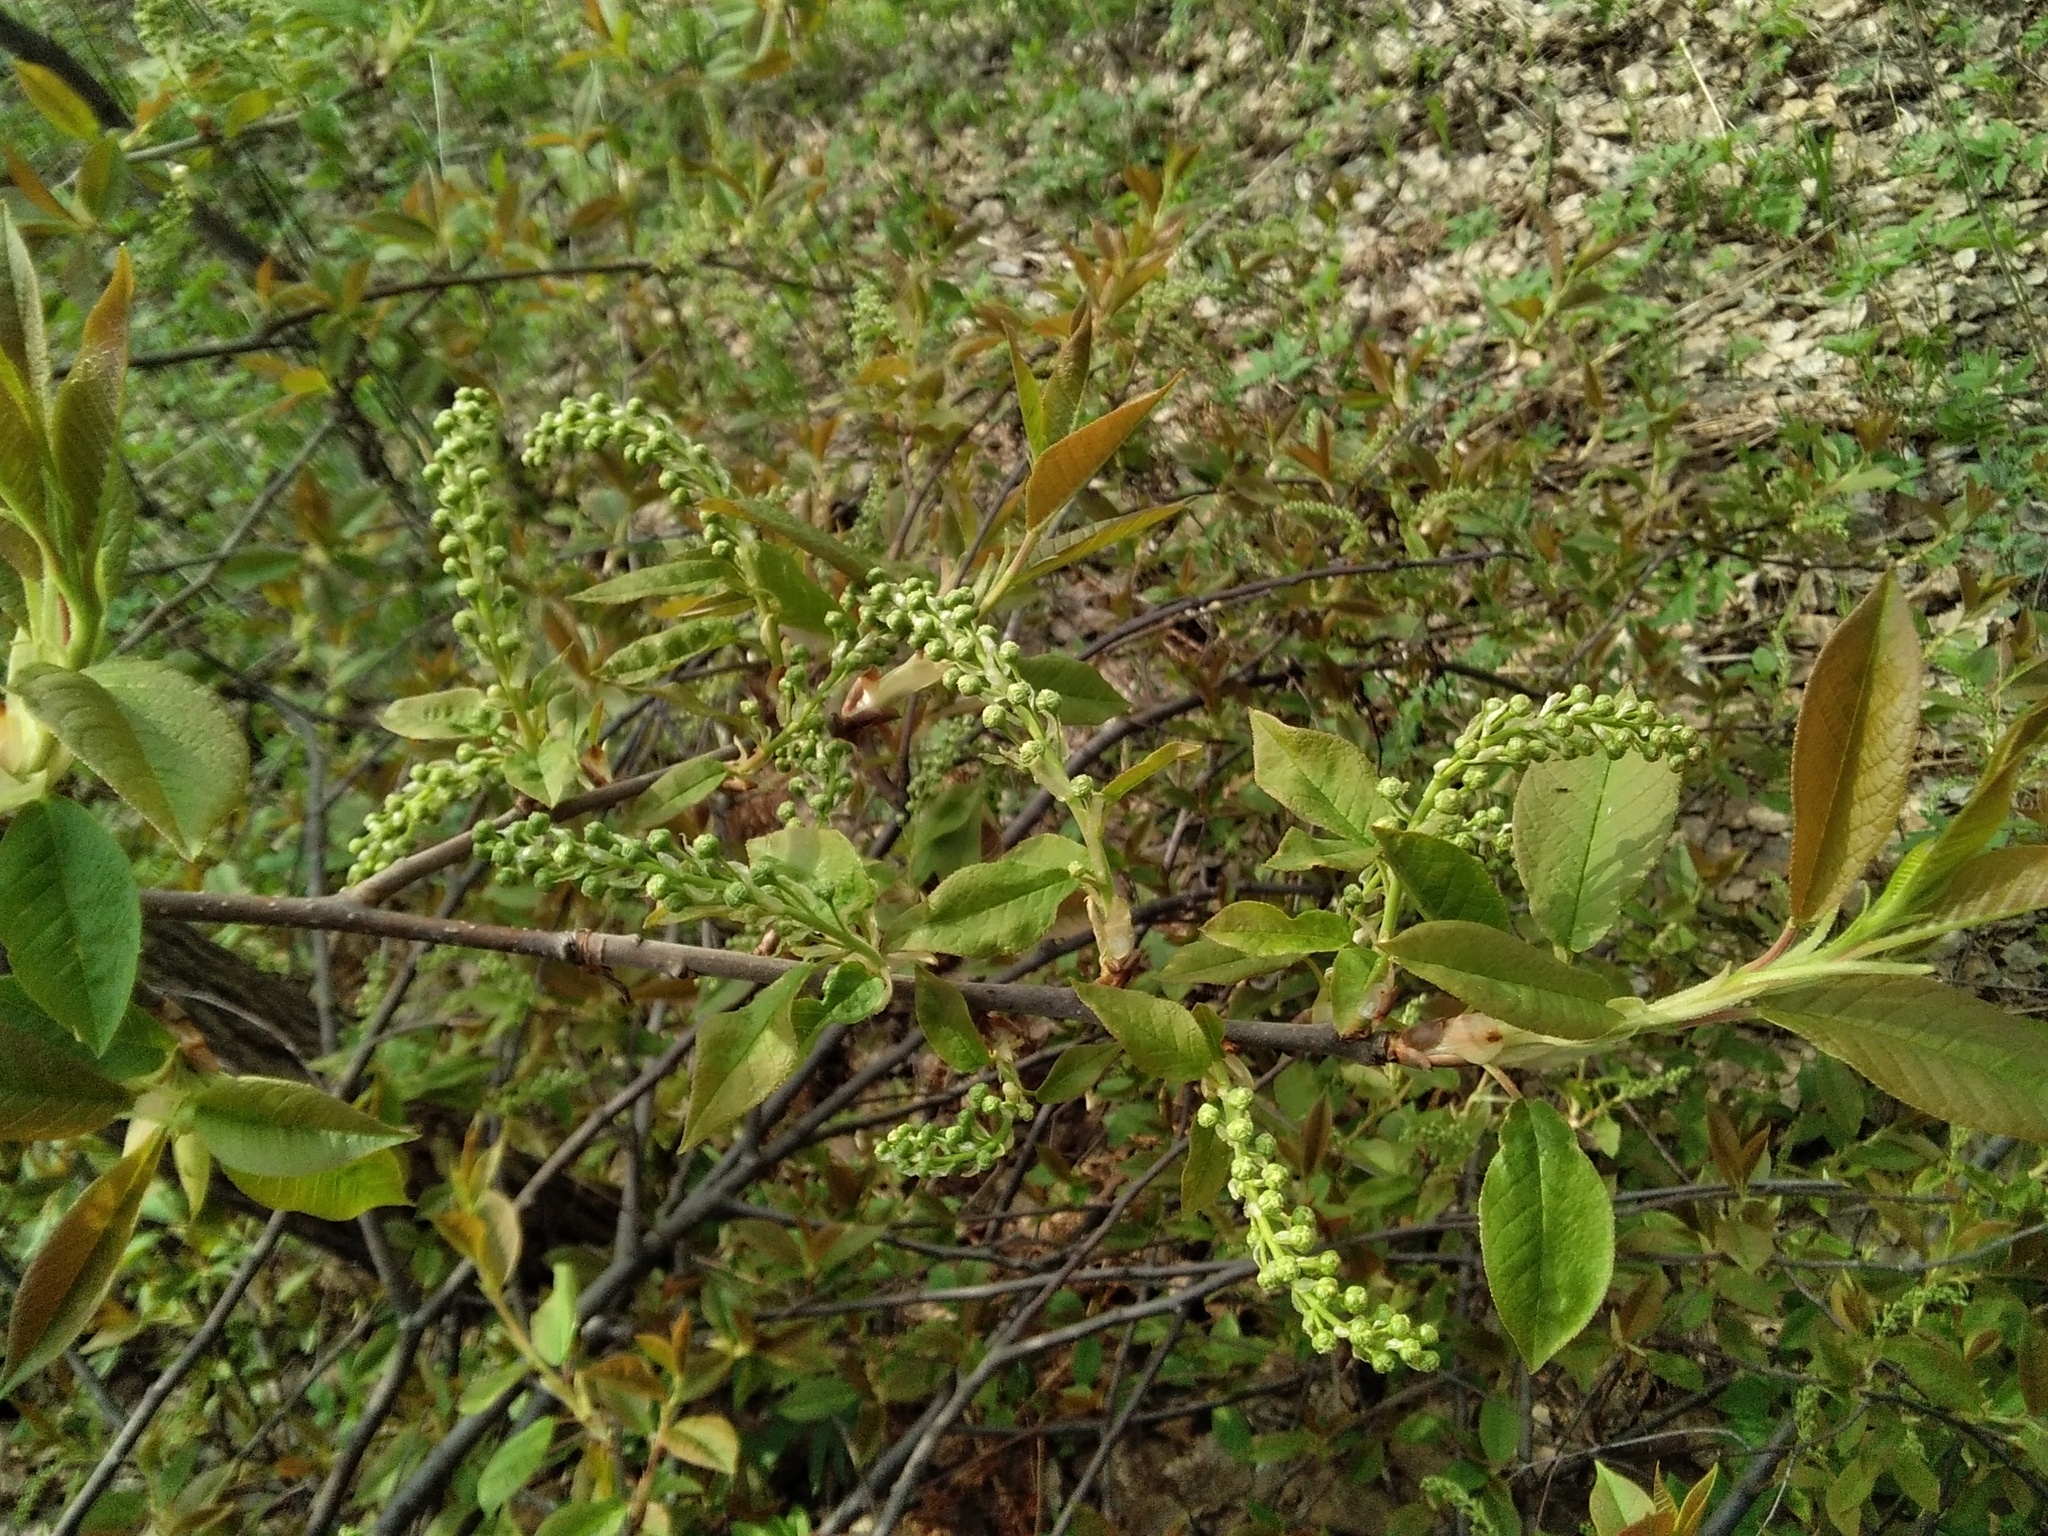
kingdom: Plantae
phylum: Tracheophyta
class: Magnoliopsida
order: Rosales
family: Rosaceae
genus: Prunus
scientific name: Prunus padus
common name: Bird cherry
